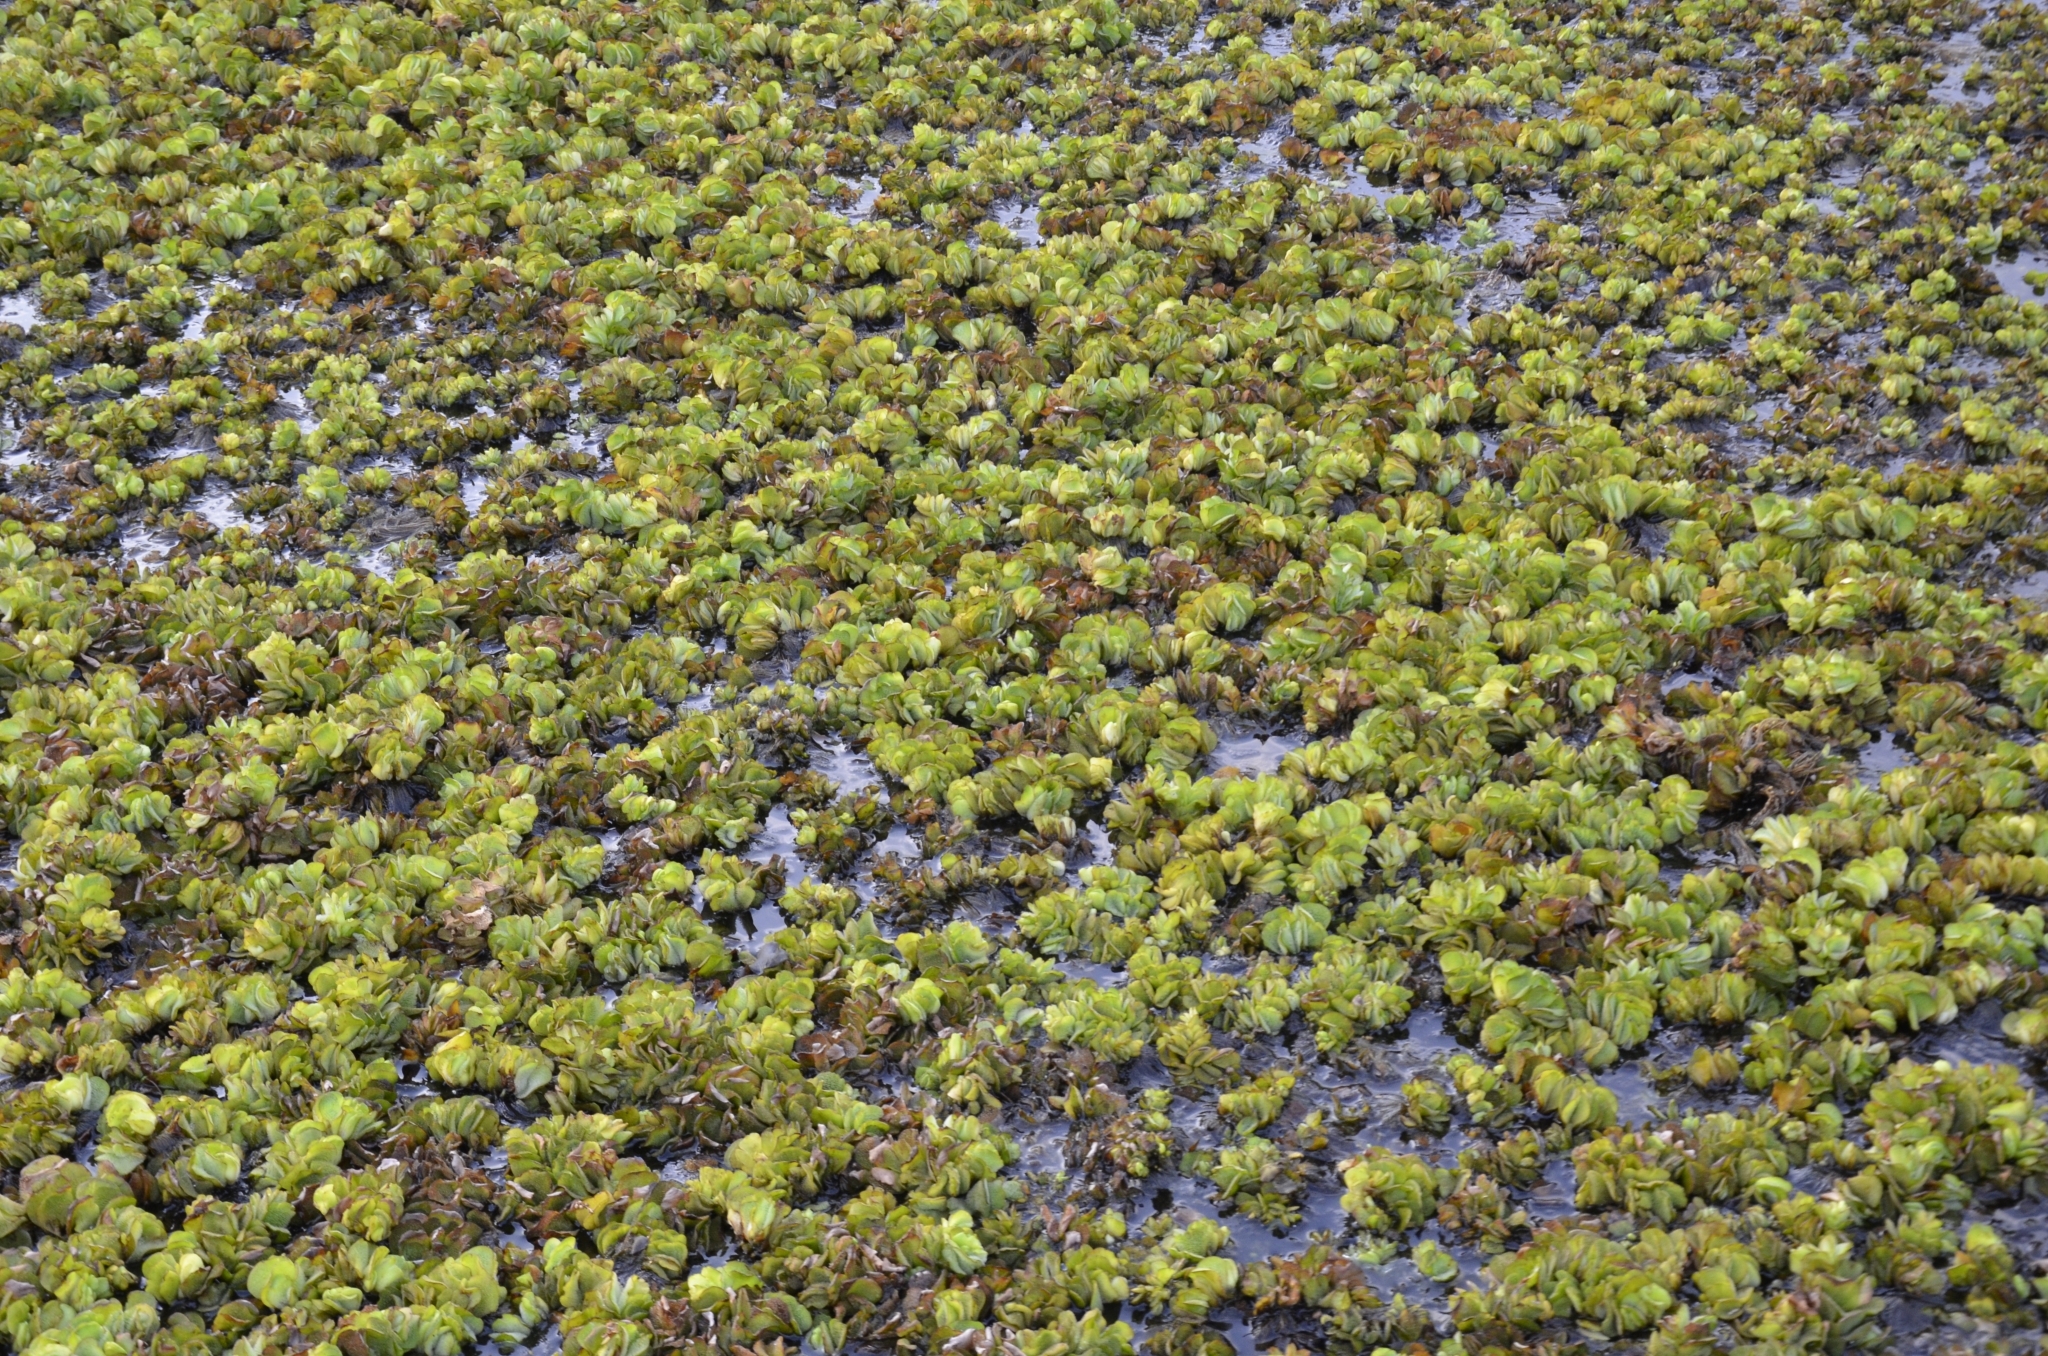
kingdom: Plantae
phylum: Tracheophyta
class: Polypodiopsida
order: Salviniales
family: Salviniaceae
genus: Salvinia
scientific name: Salvinia molesta
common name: Kariba weed
